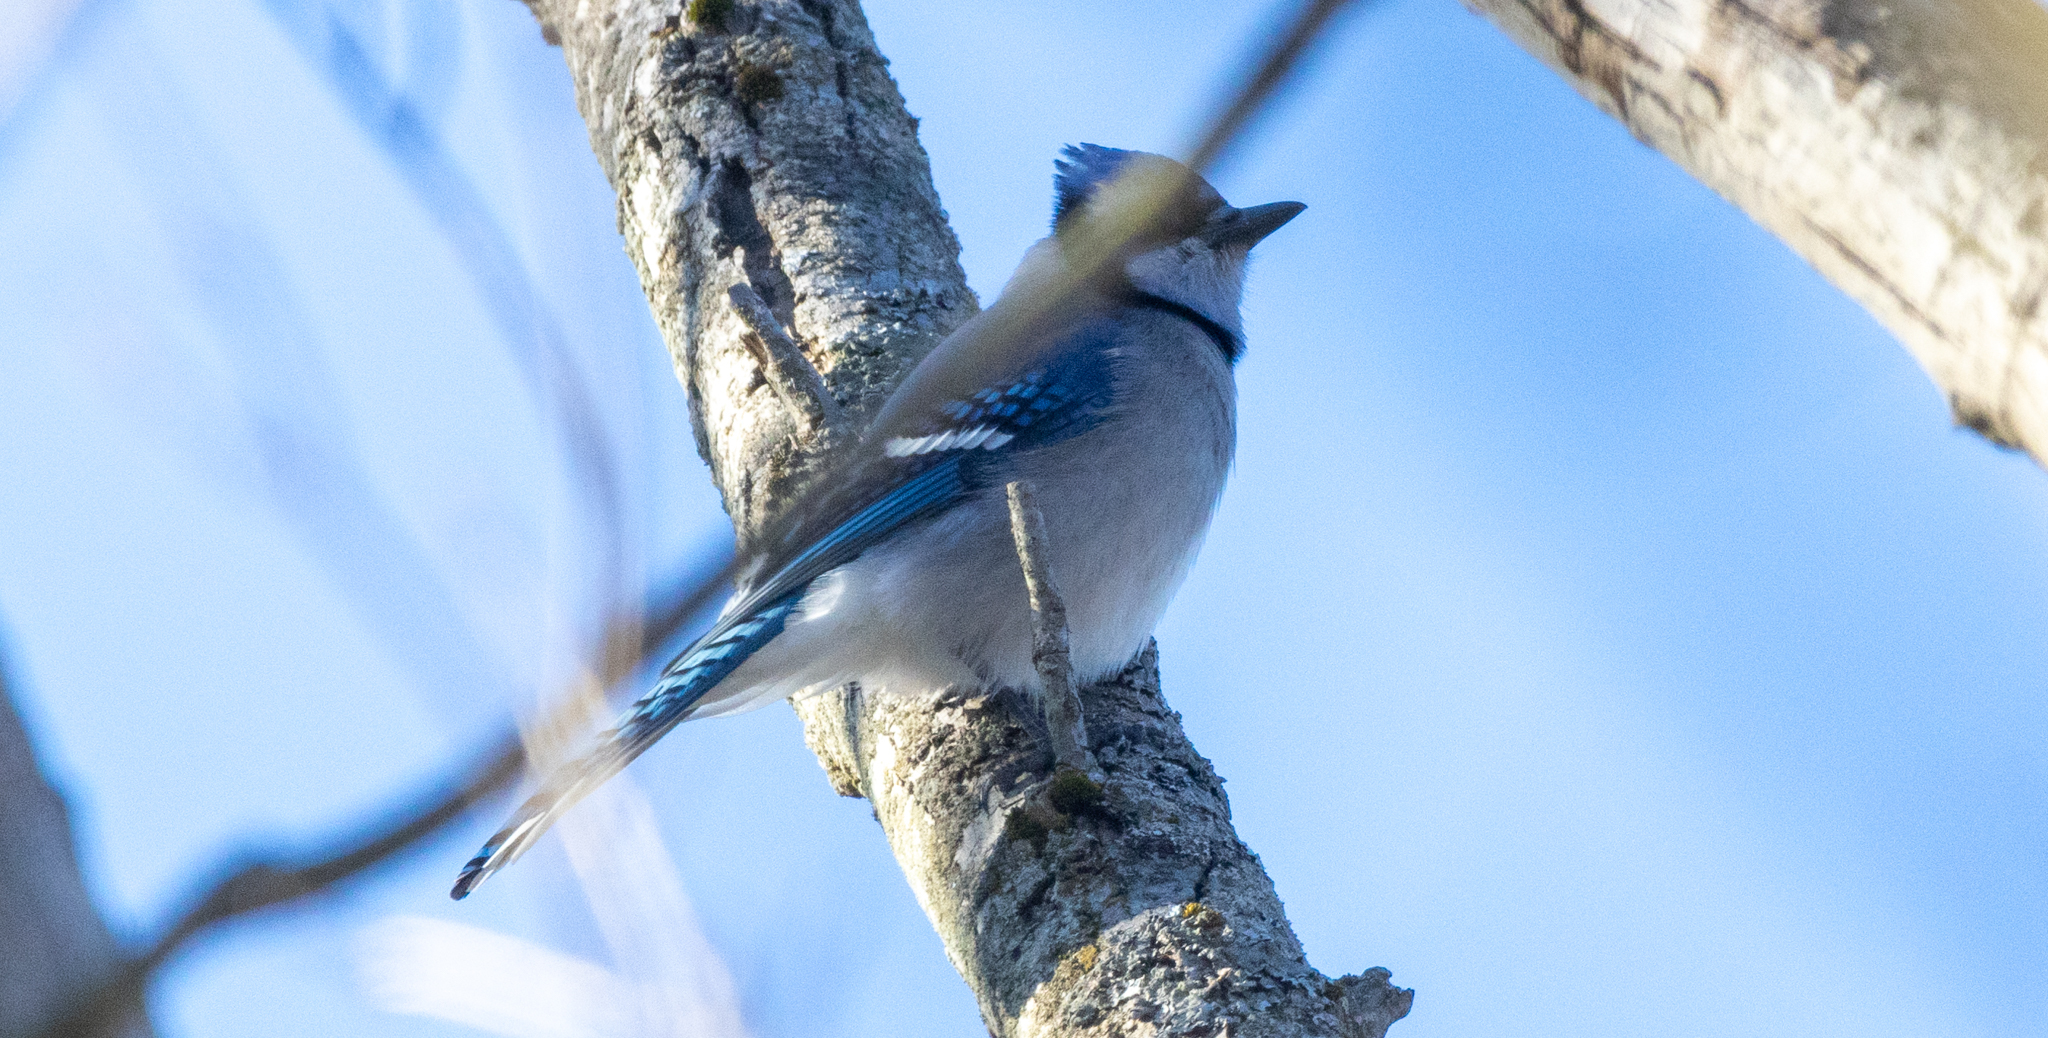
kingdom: Animalia
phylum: Chordata
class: Aves
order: Passeriformes
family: Corvidae
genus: Cyanocitta
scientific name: Cyanocitta cristata
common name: Blue jay
